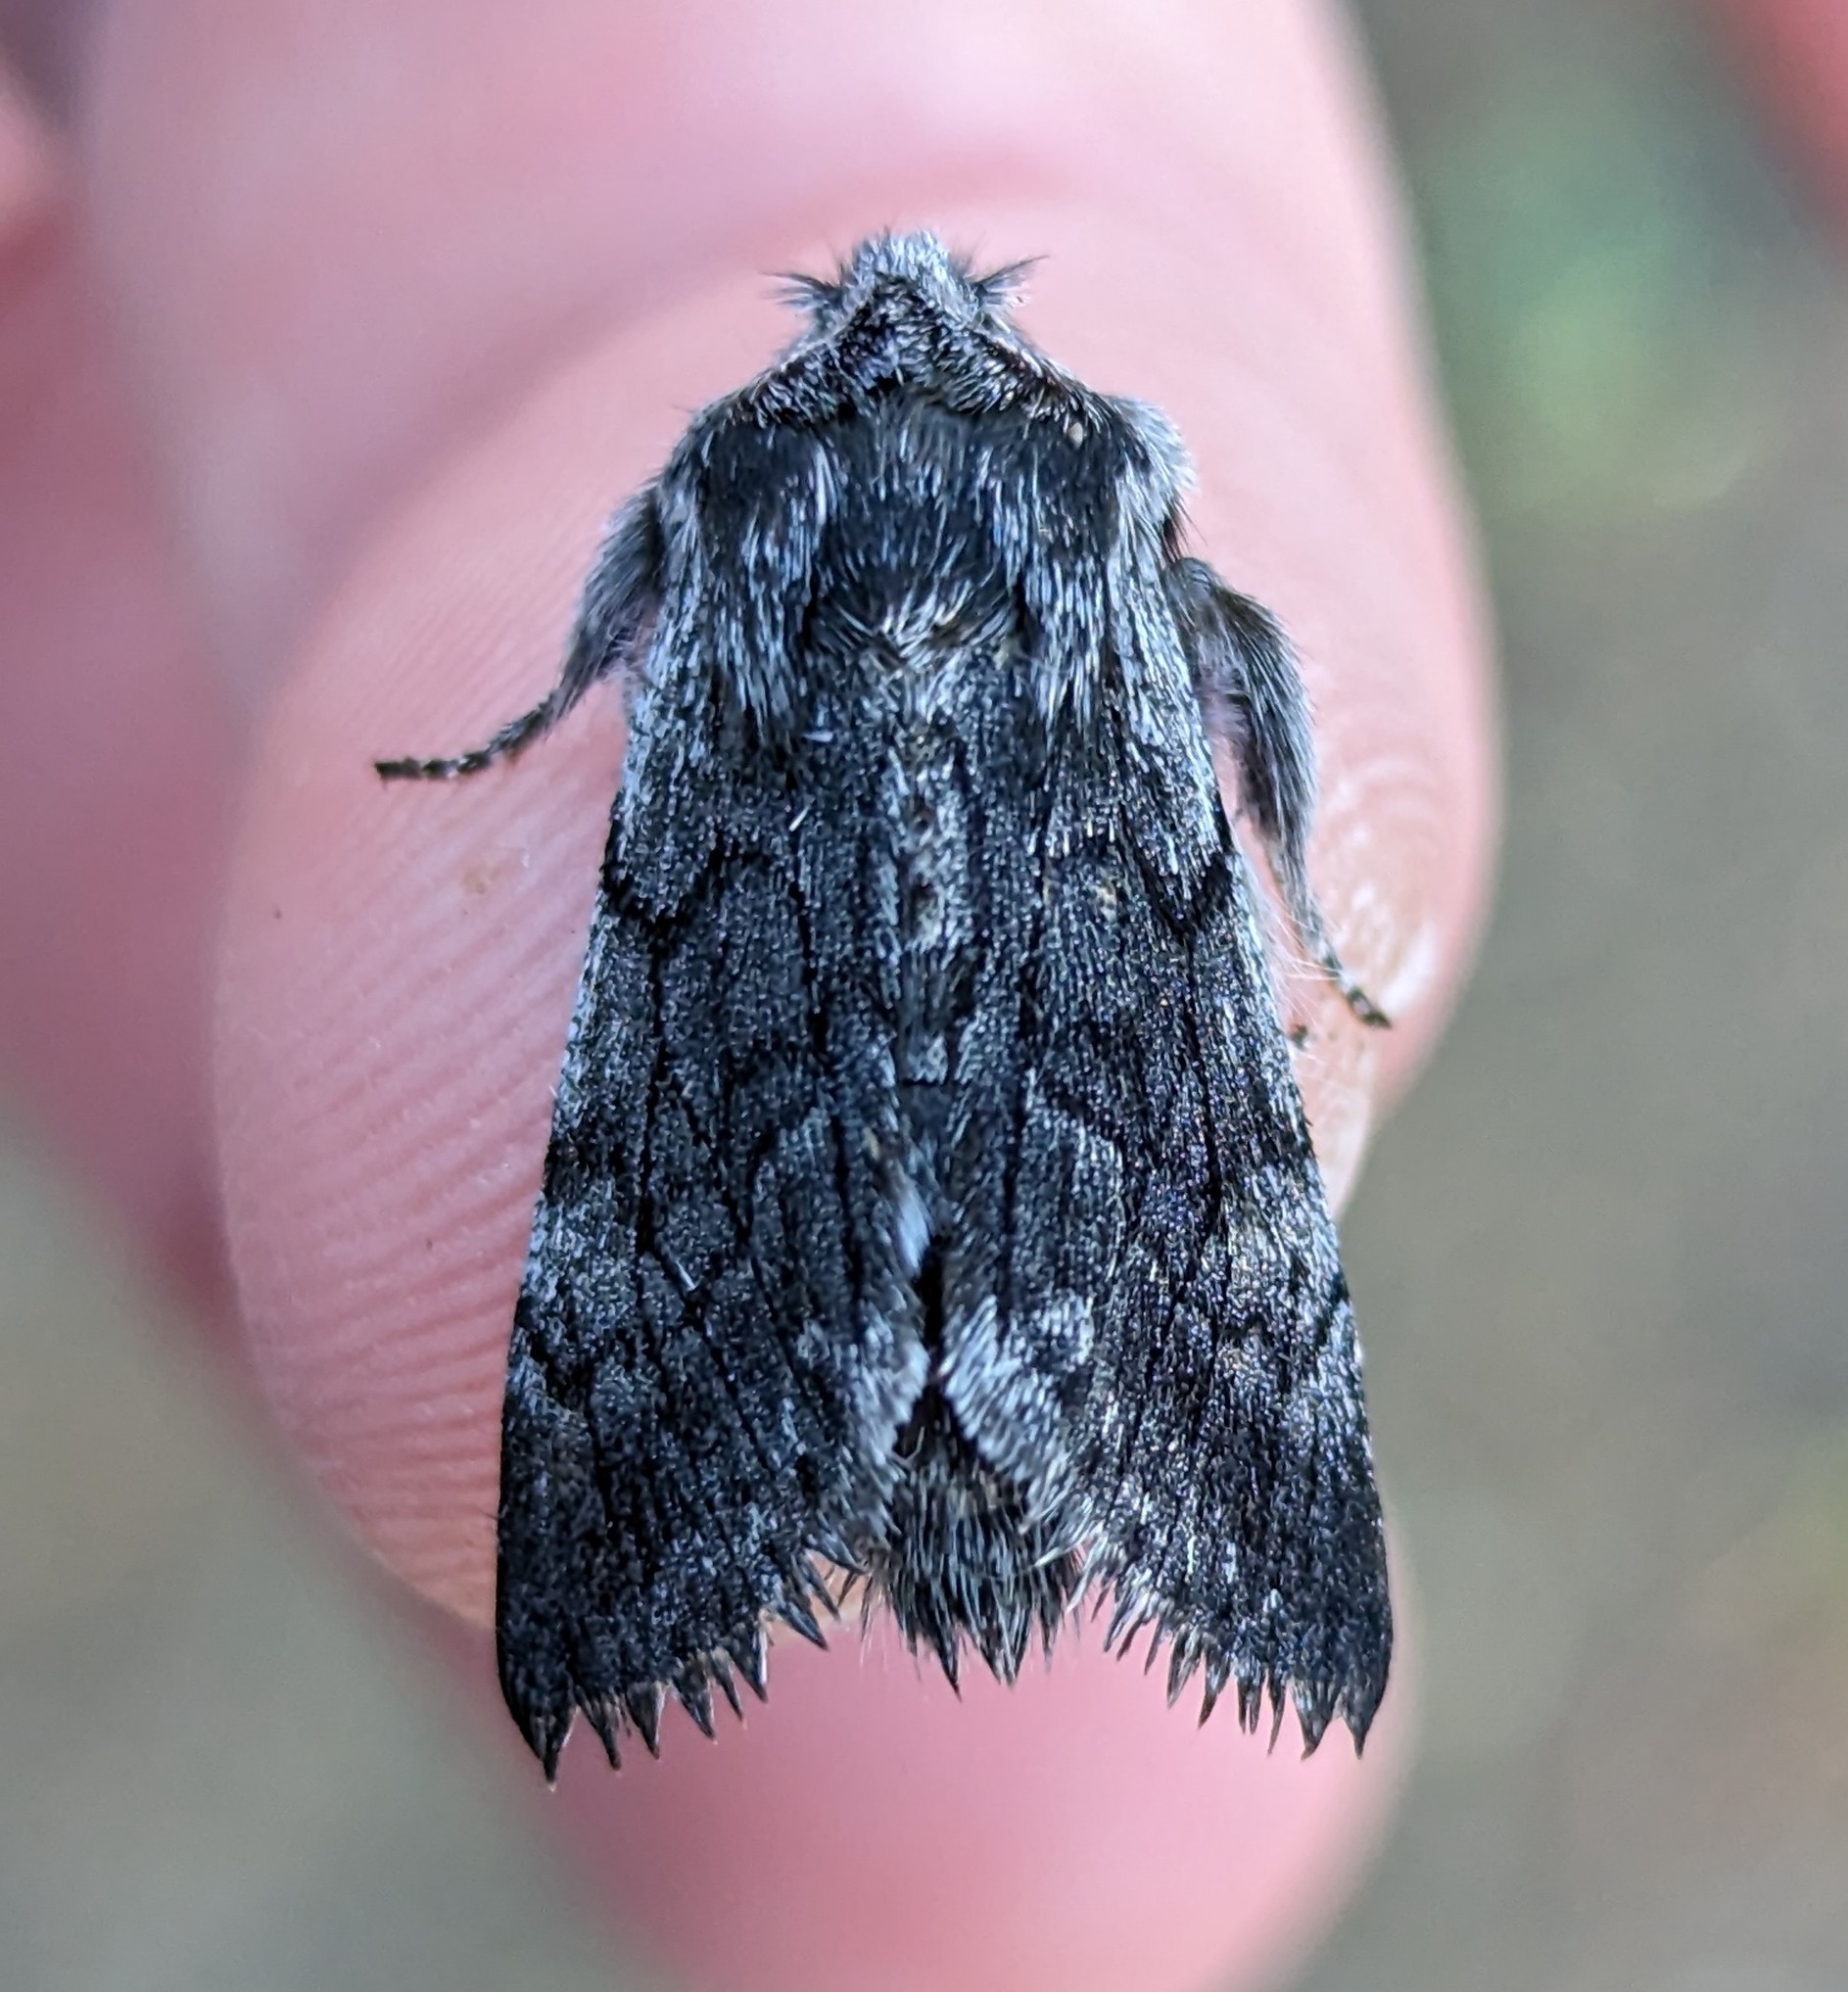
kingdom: Animalia
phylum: Arthropoda
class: Insecta
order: Lepidoptera
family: Noctuidae
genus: Pleromelloida
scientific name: Pleromelloida conserta
